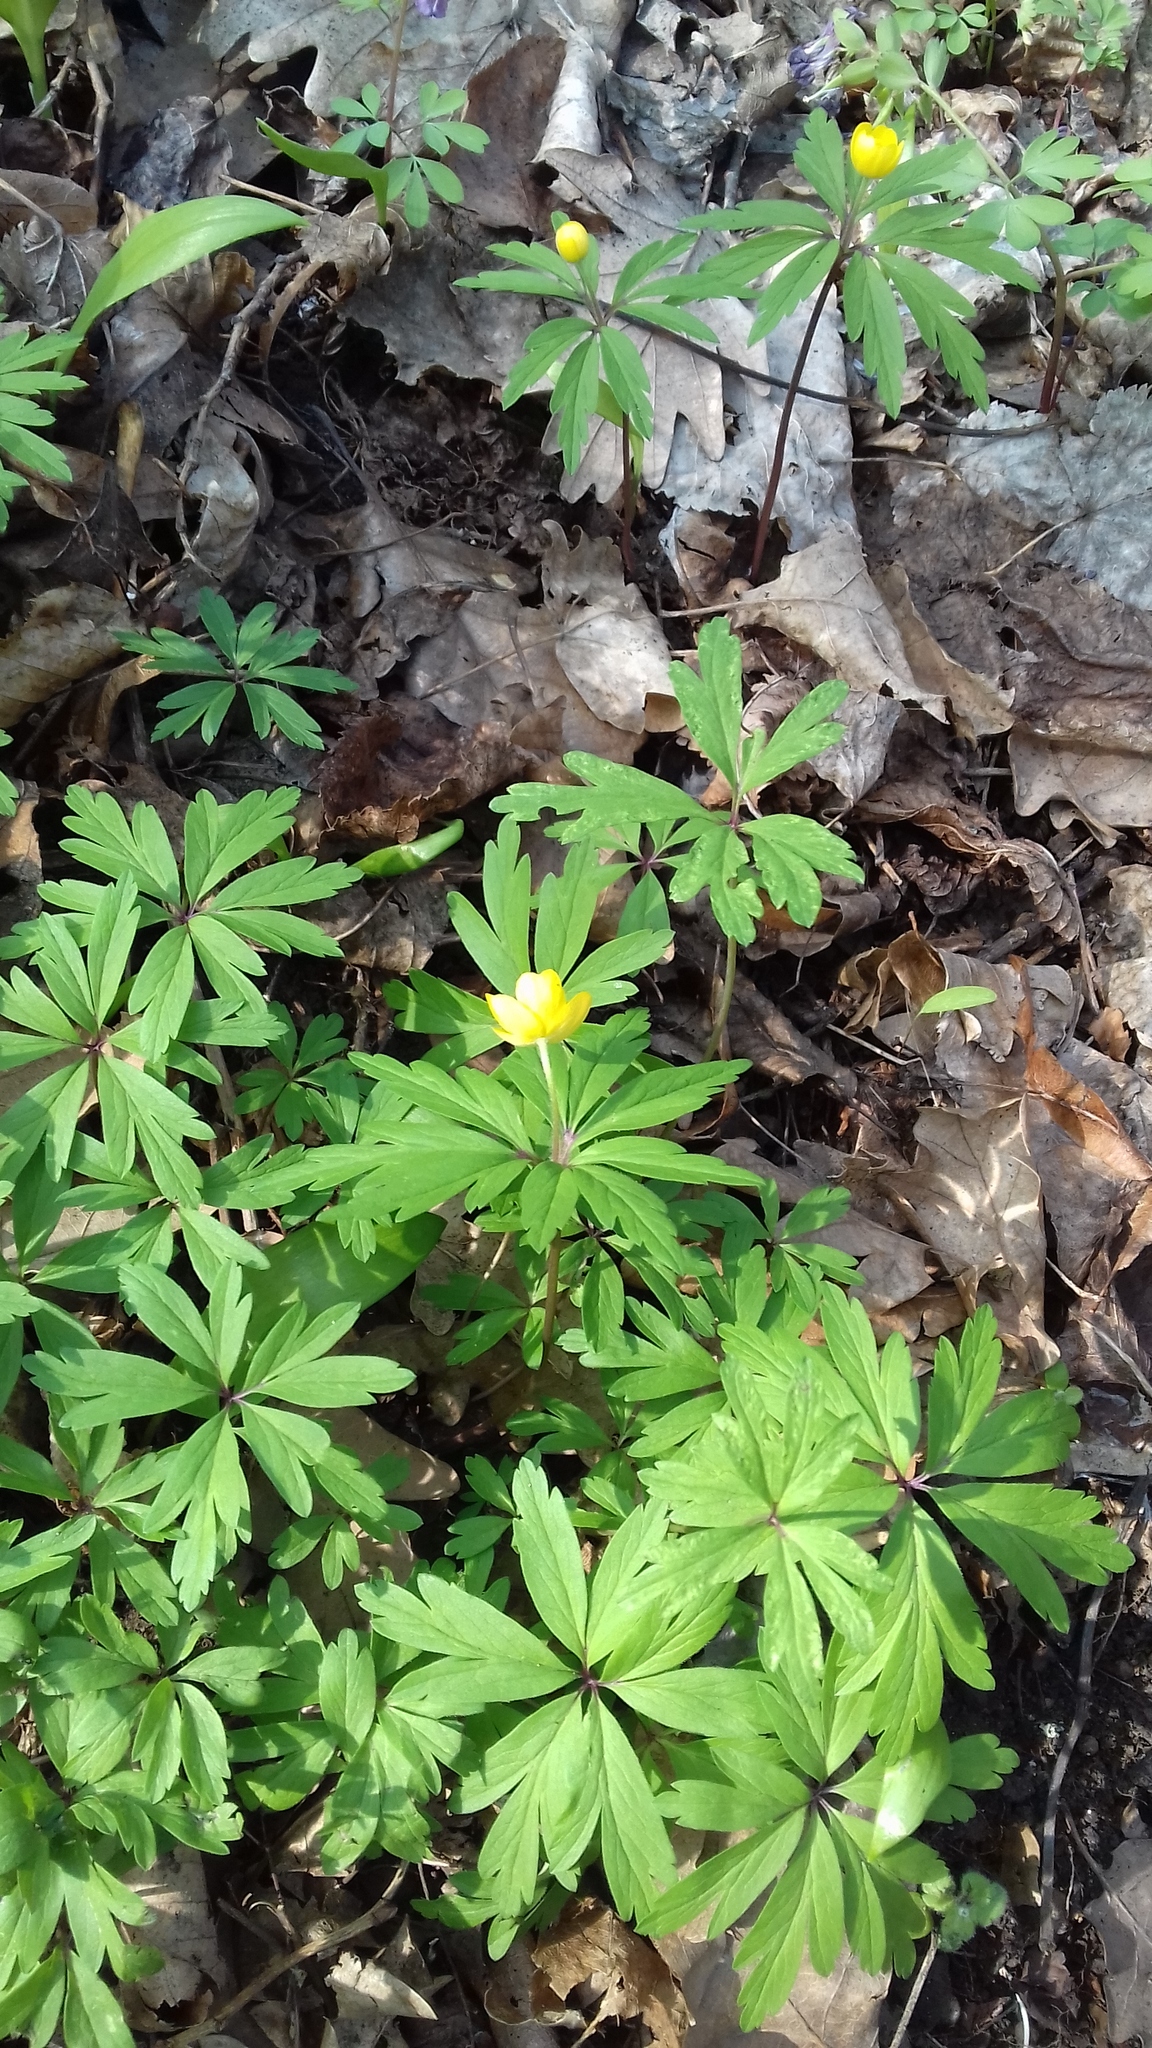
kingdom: Plantae
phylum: Tracheophyta
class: Magnoliopsida
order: Ranunculales
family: Ranunculaceae
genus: Anemone
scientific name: Anemone ranunculoides
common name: Yellow anemone
